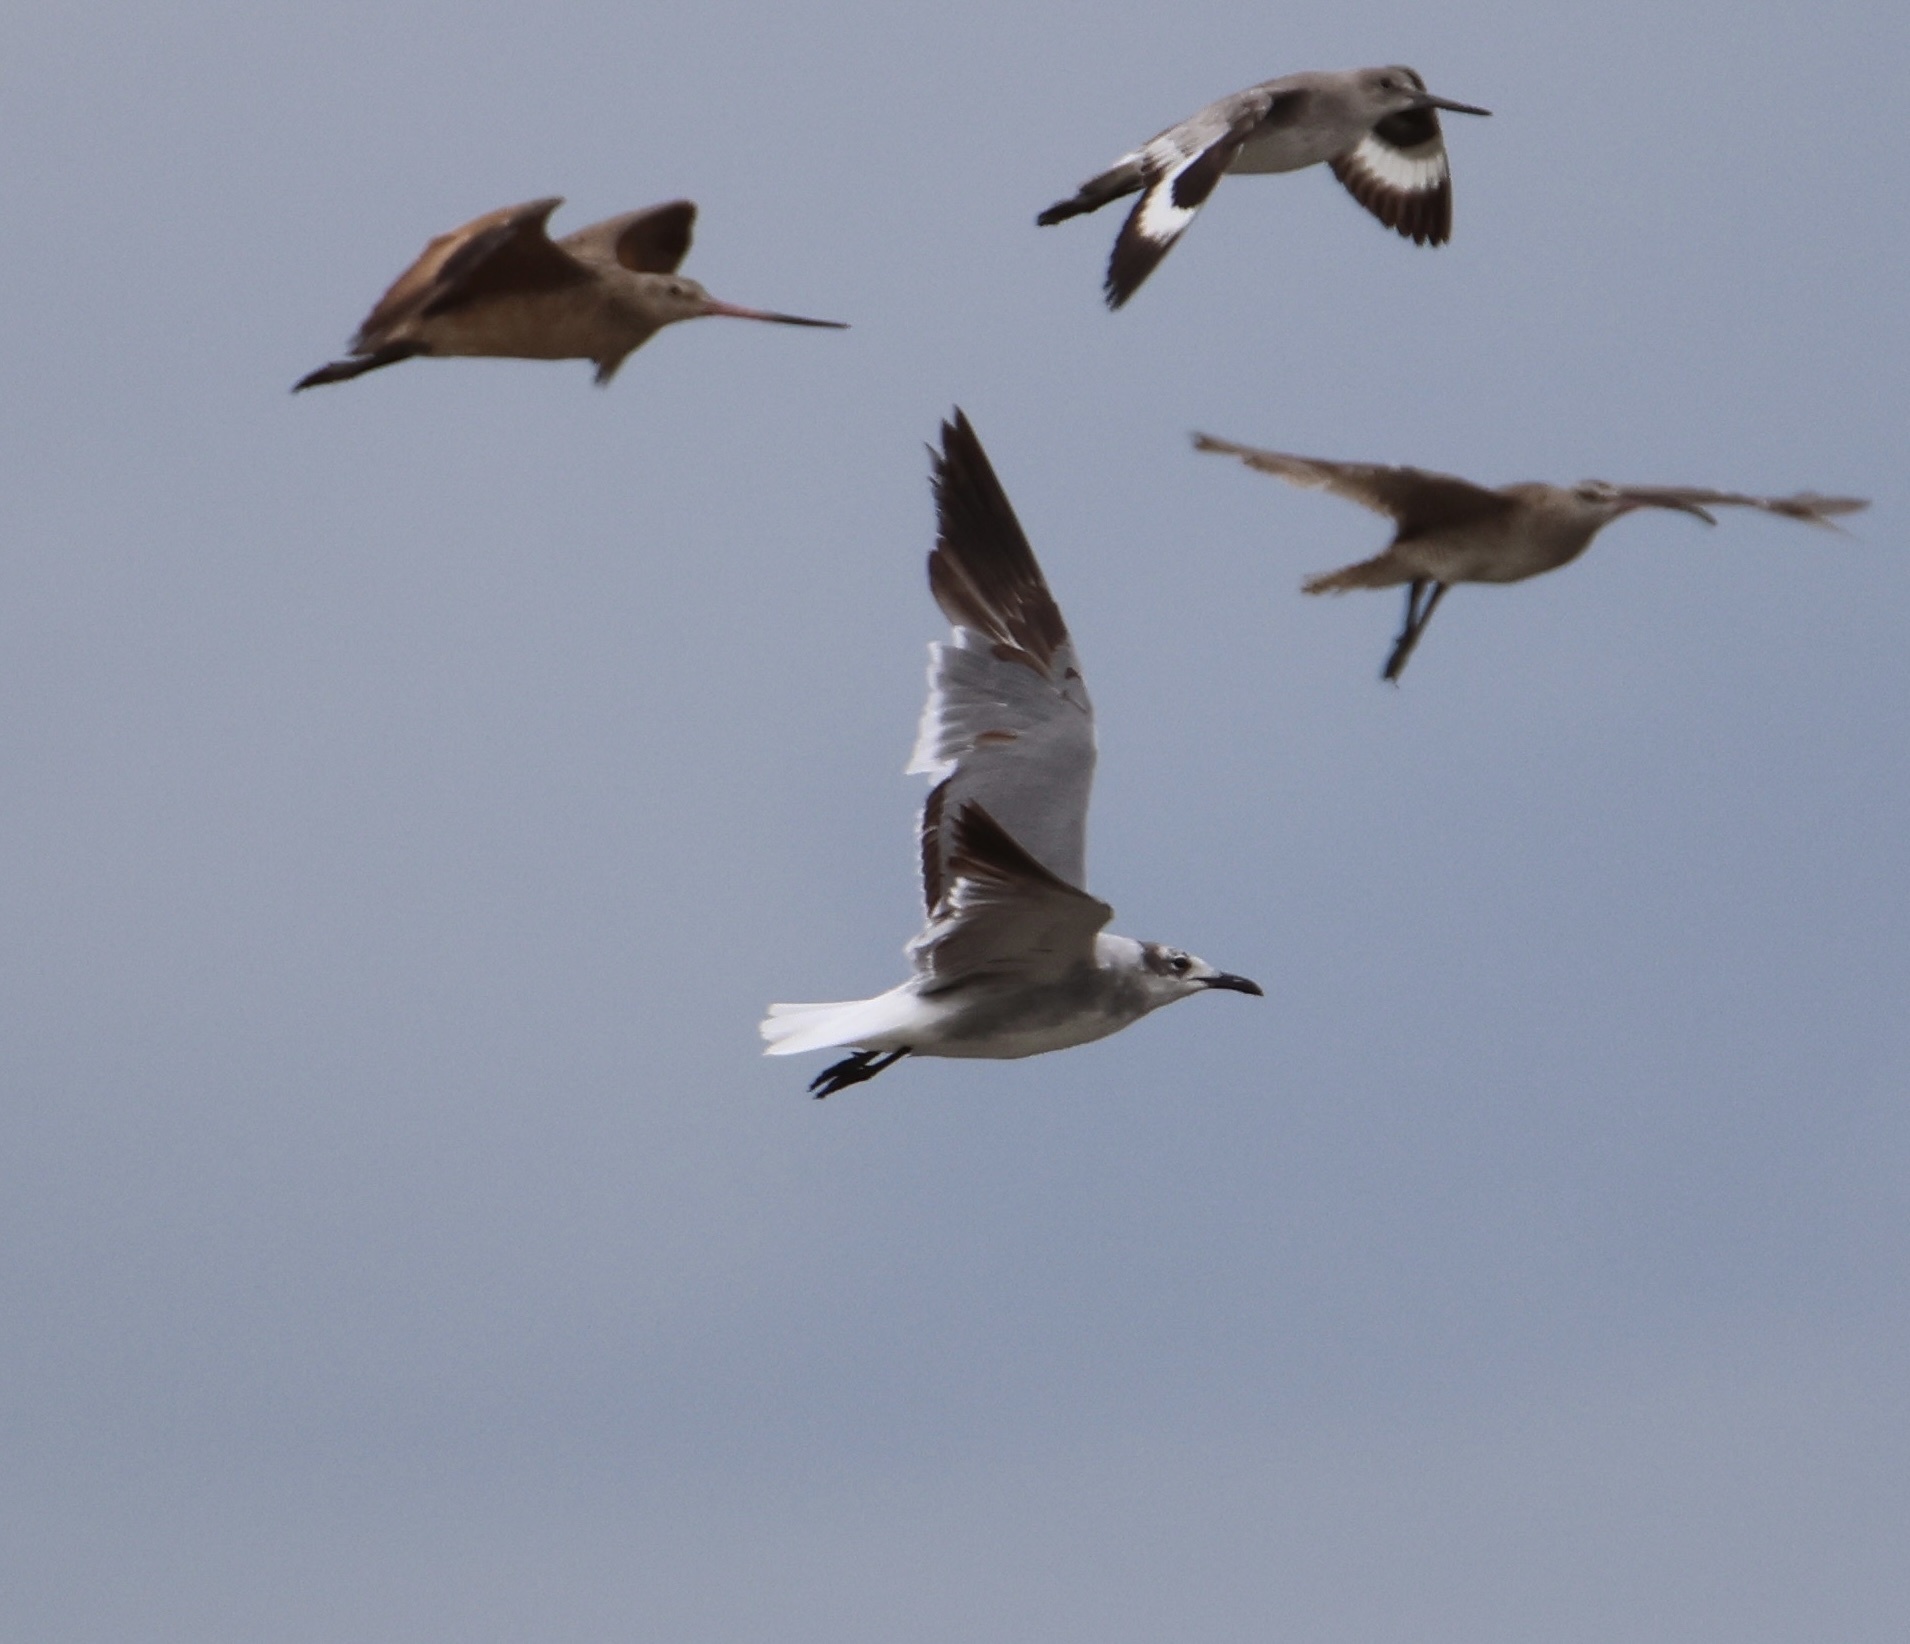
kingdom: Animalia
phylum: Chordata
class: Aves
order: Charadriiformes
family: Laridae
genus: Leucophaeus
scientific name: Leucophaeus atricilla
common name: Laughing gull
